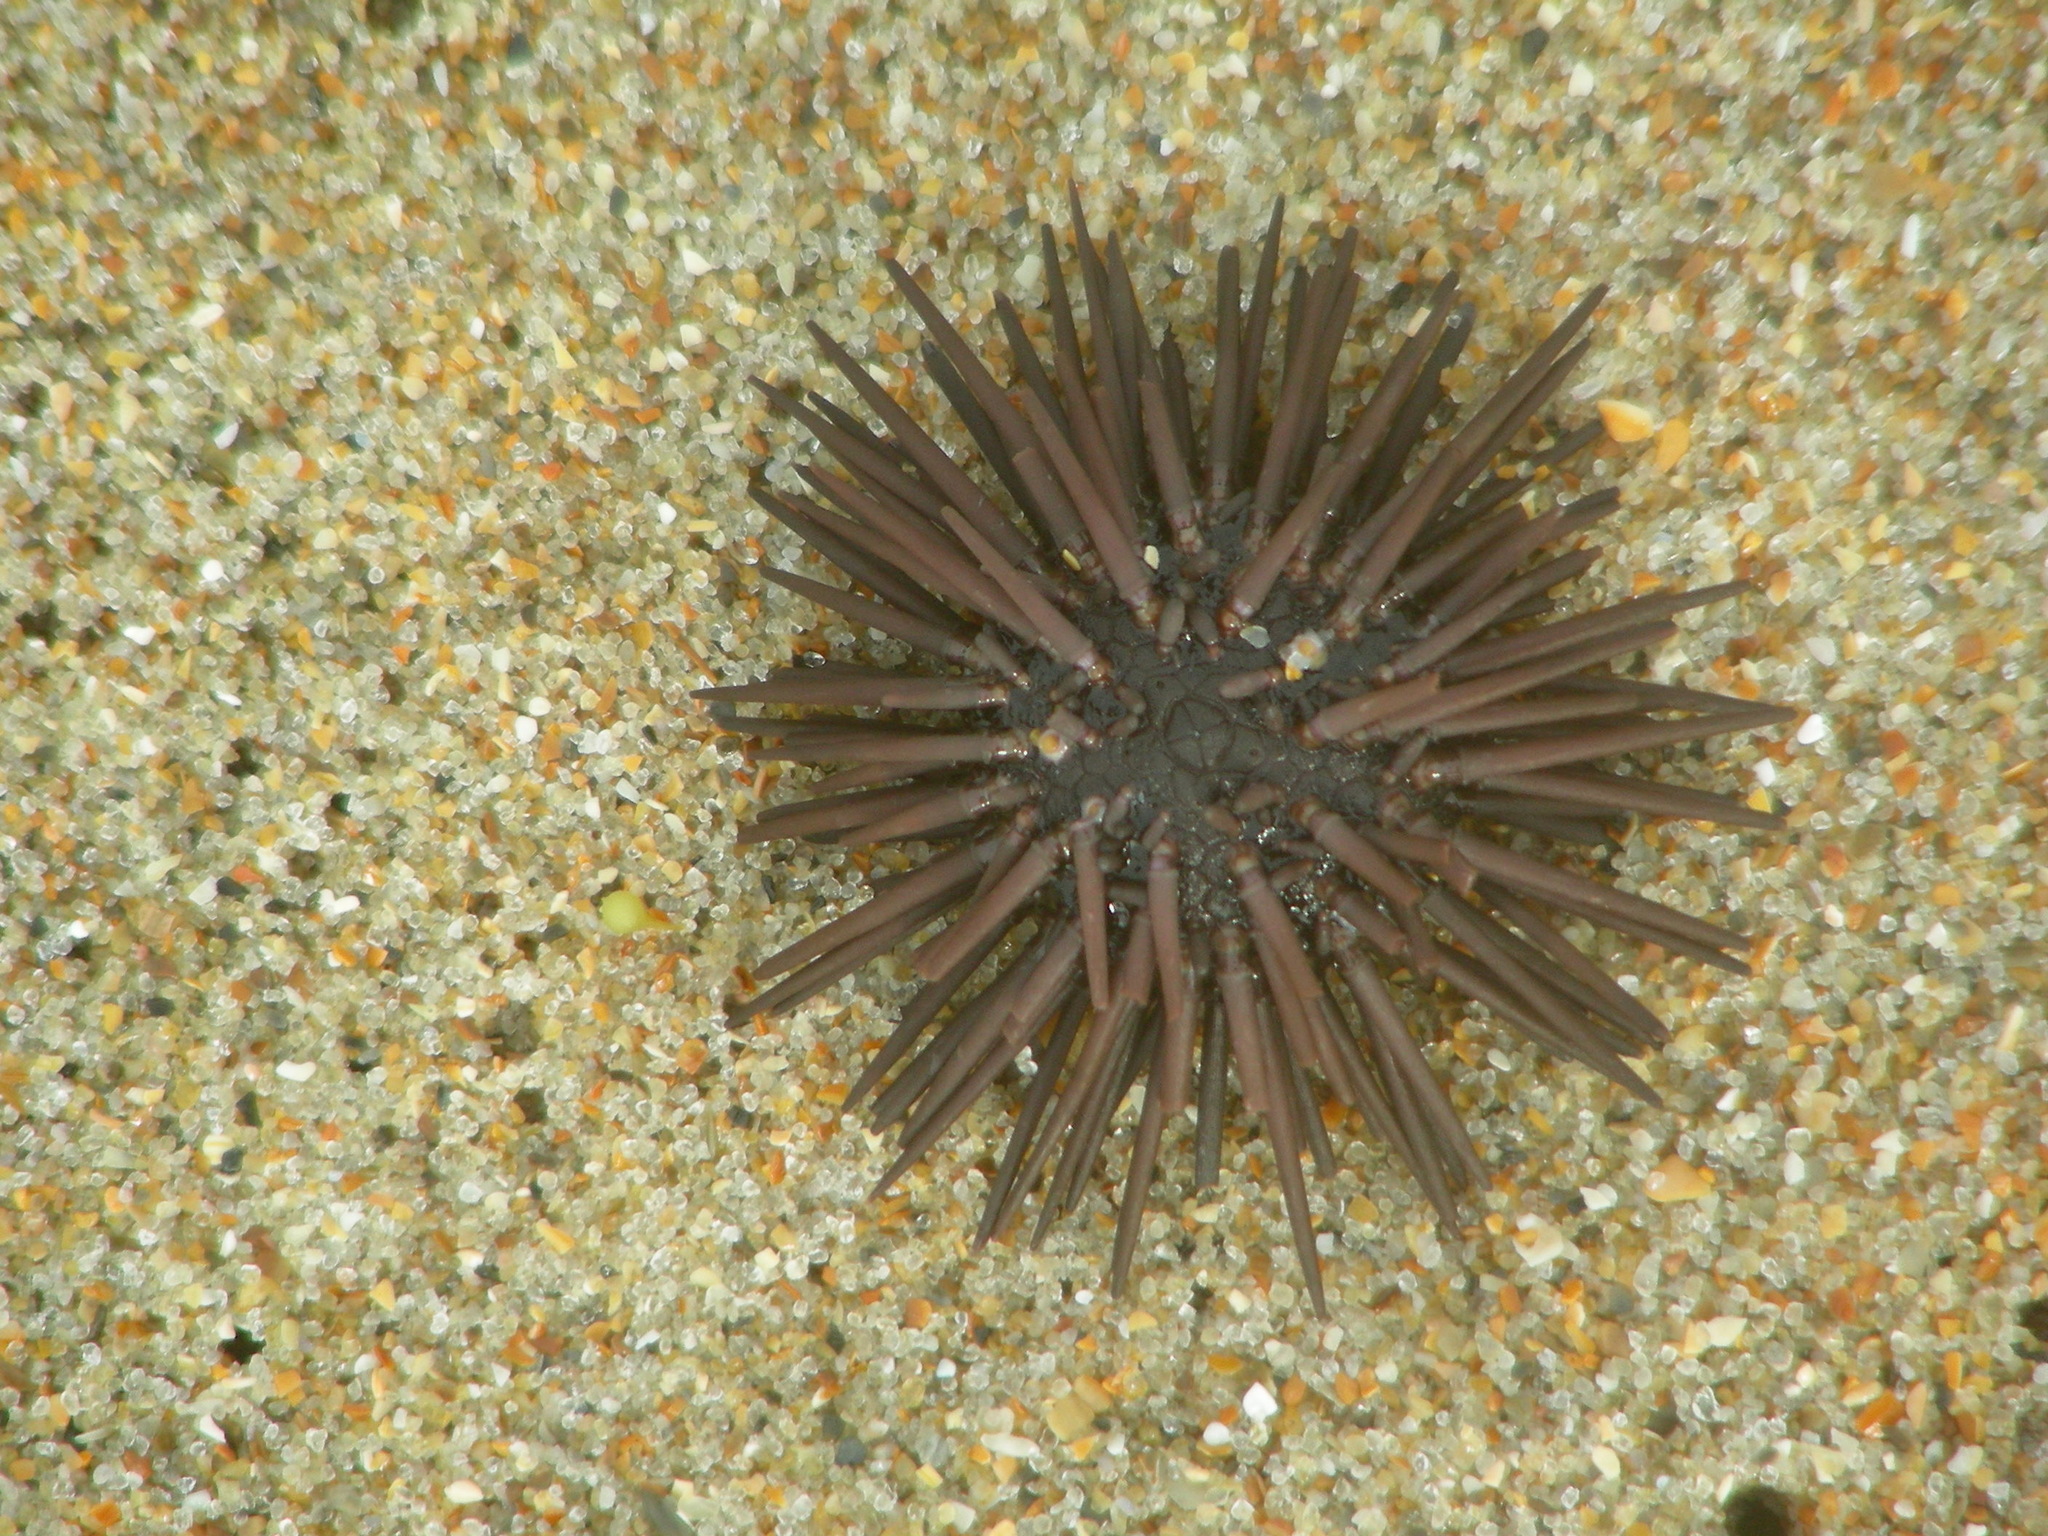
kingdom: Animalia
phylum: Echinodermata
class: Echinoidea
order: Arbacioida
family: Arbaciidae
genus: Arbacia
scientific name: Arbacia punctulata
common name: Purple-spined sea urchin
